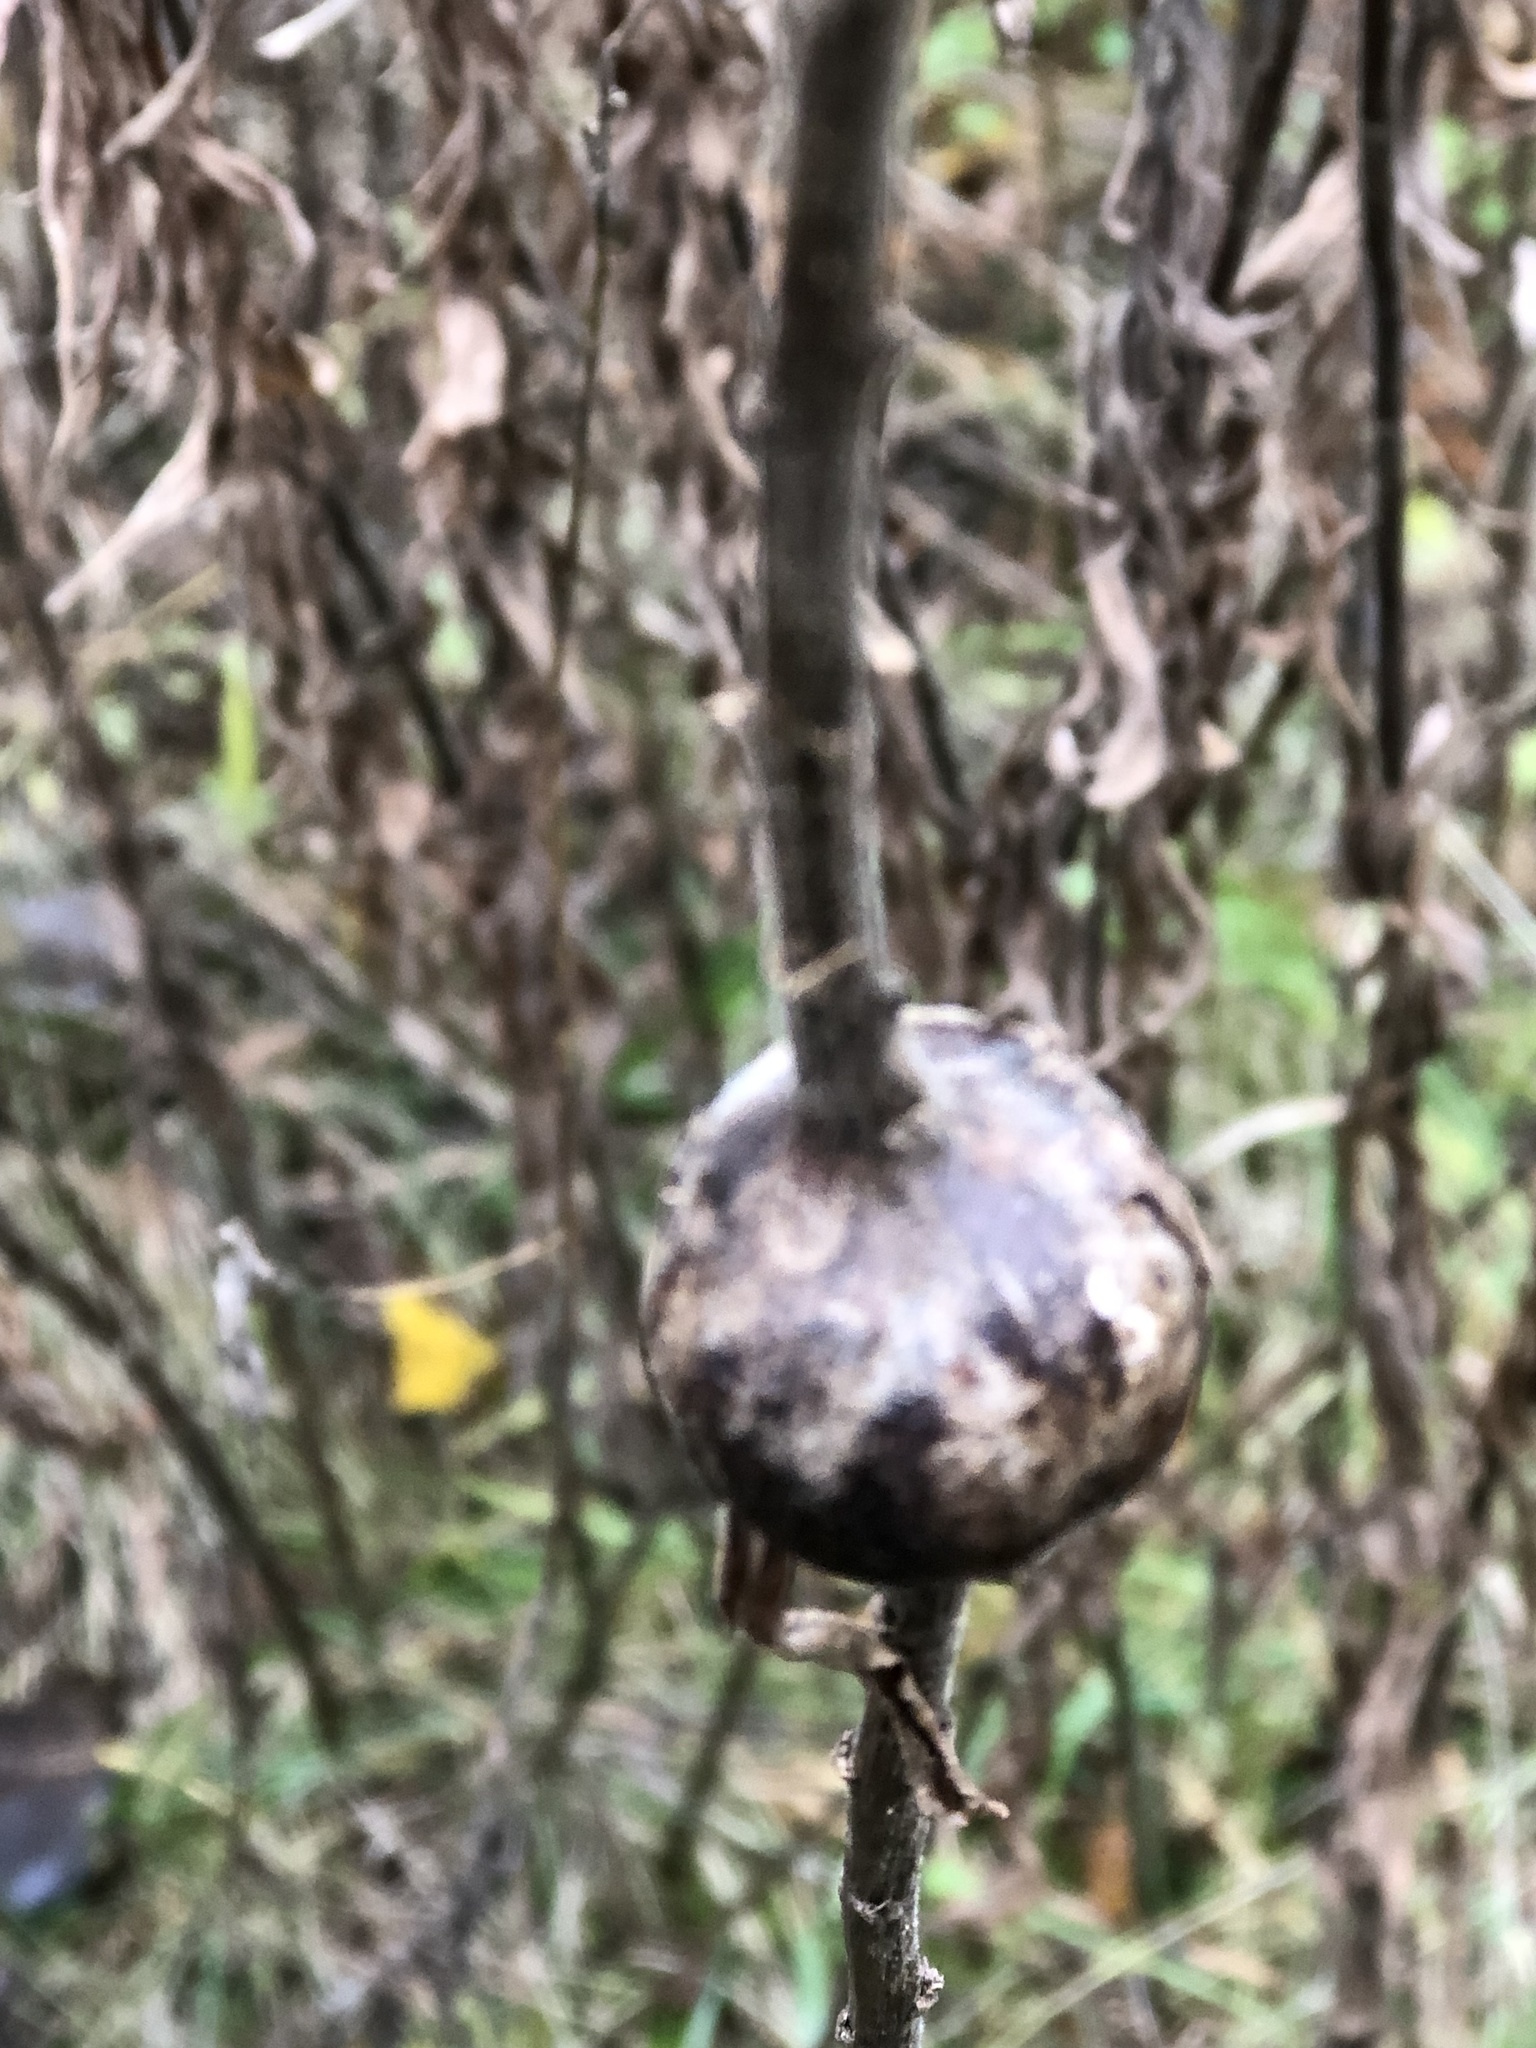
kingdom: Animalia
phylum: Arthropoda
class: Insecta
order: Diptera
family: Tephritidae
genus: Eurosta
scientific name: Eurosta solidaginis
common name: Goldenrod gall fly
